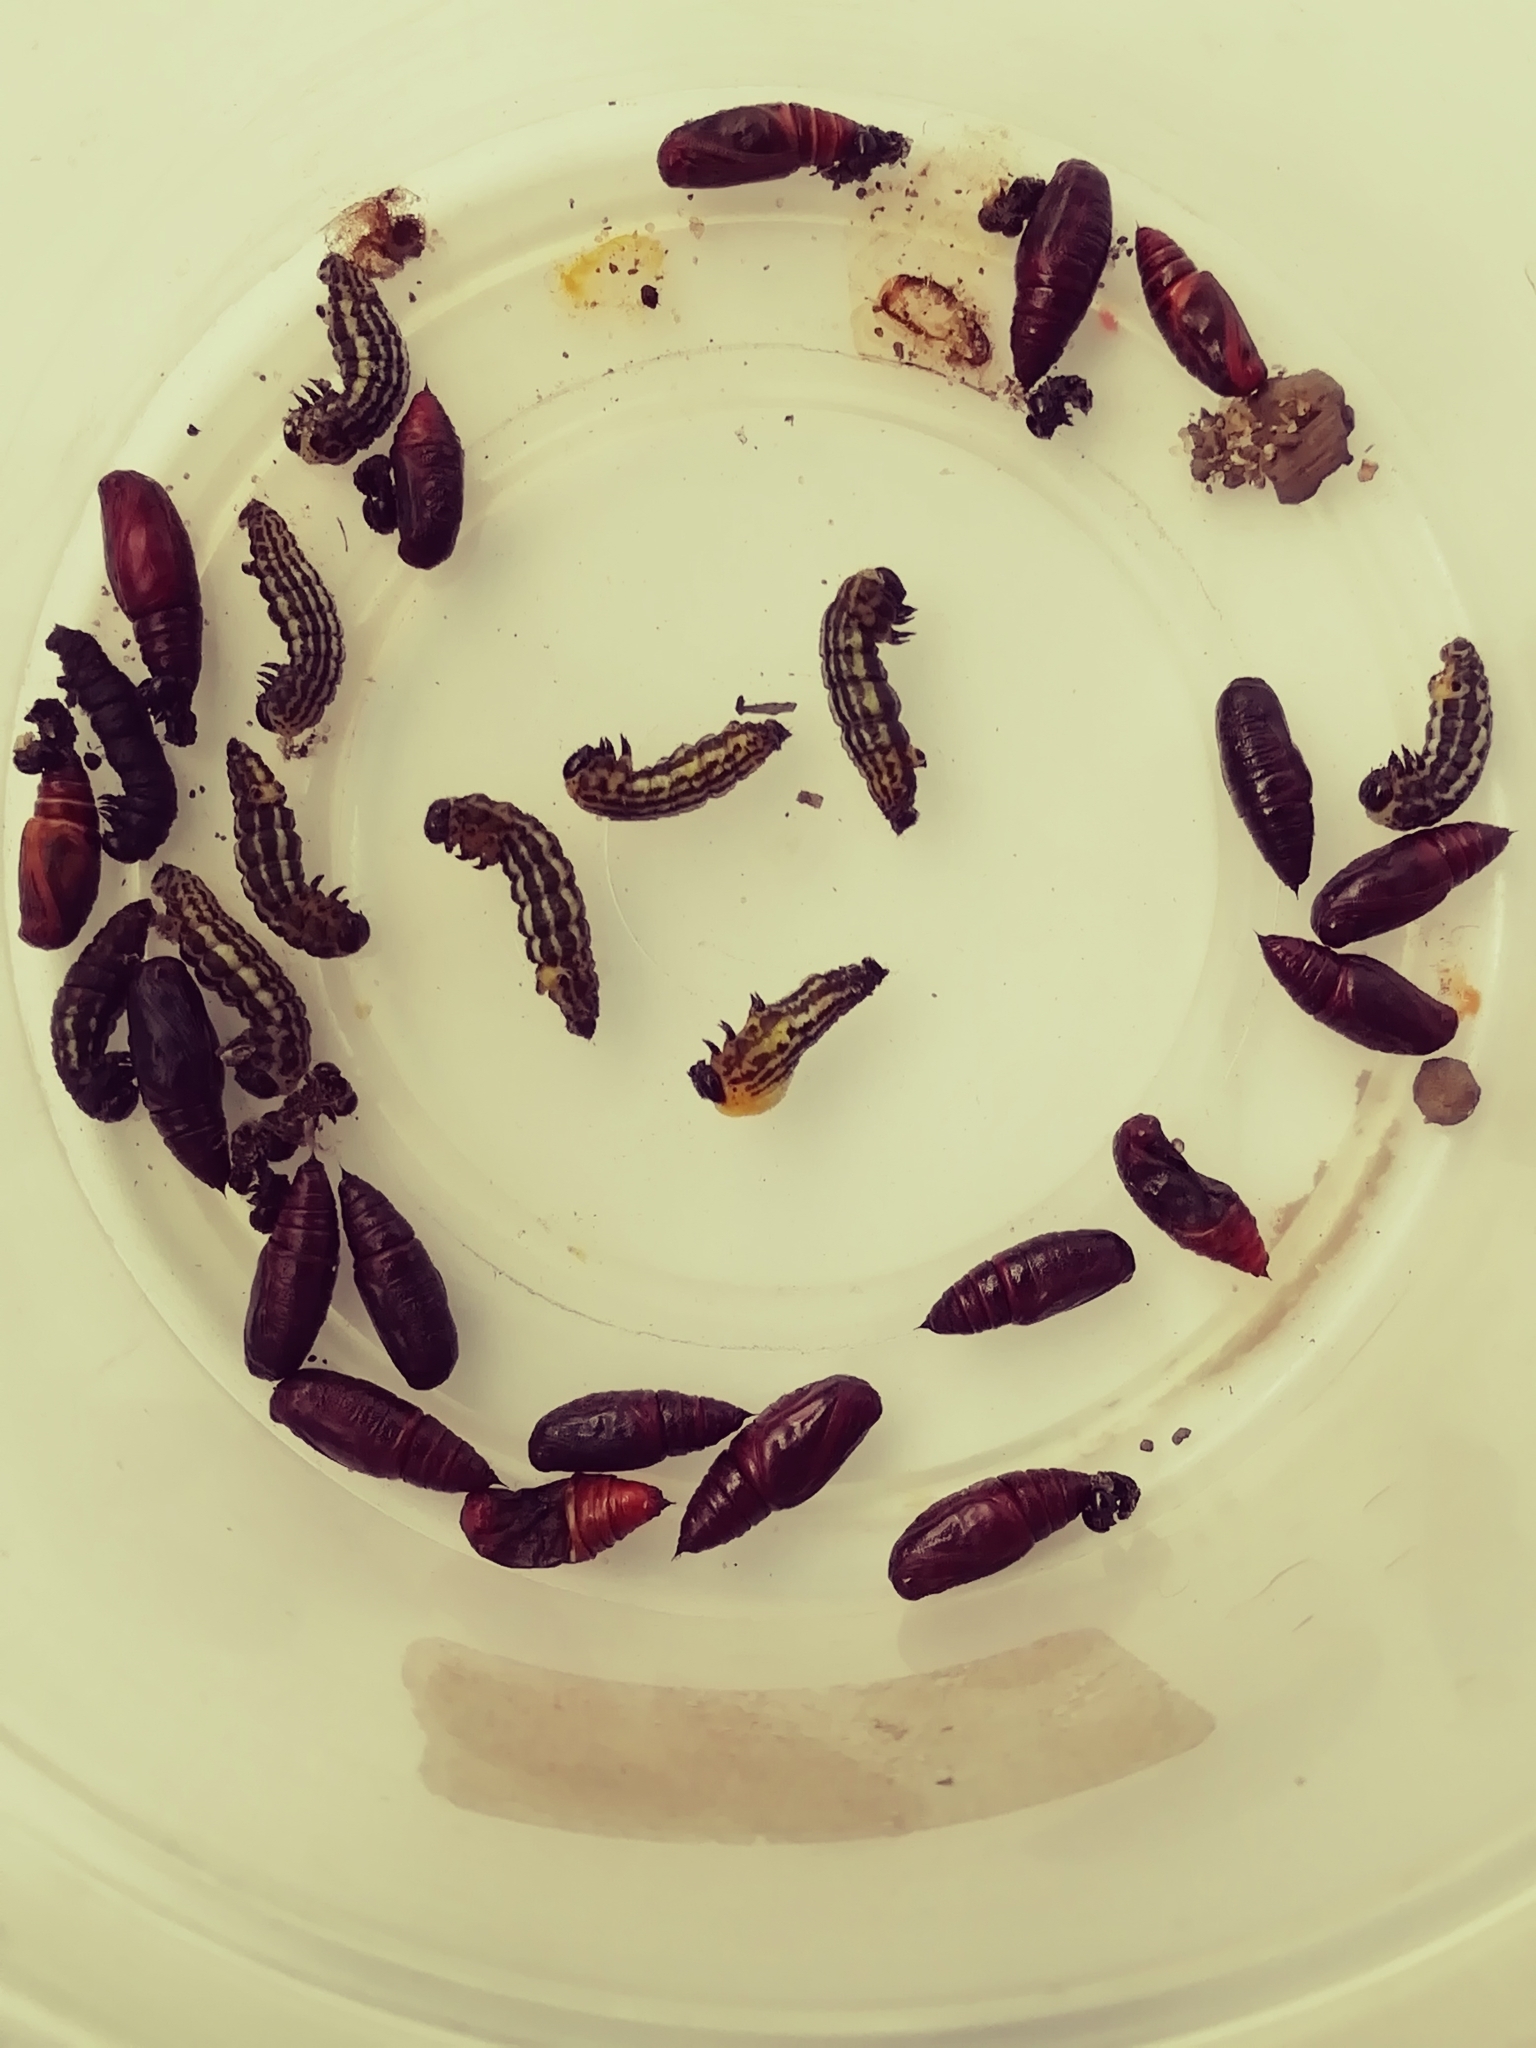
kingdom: Animalia
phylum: Arthropoda
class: Insecta
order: Lepidoptera
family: Geometridae
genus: Abraxas
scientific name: Abraxas sylvata
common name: Clouded magpie
